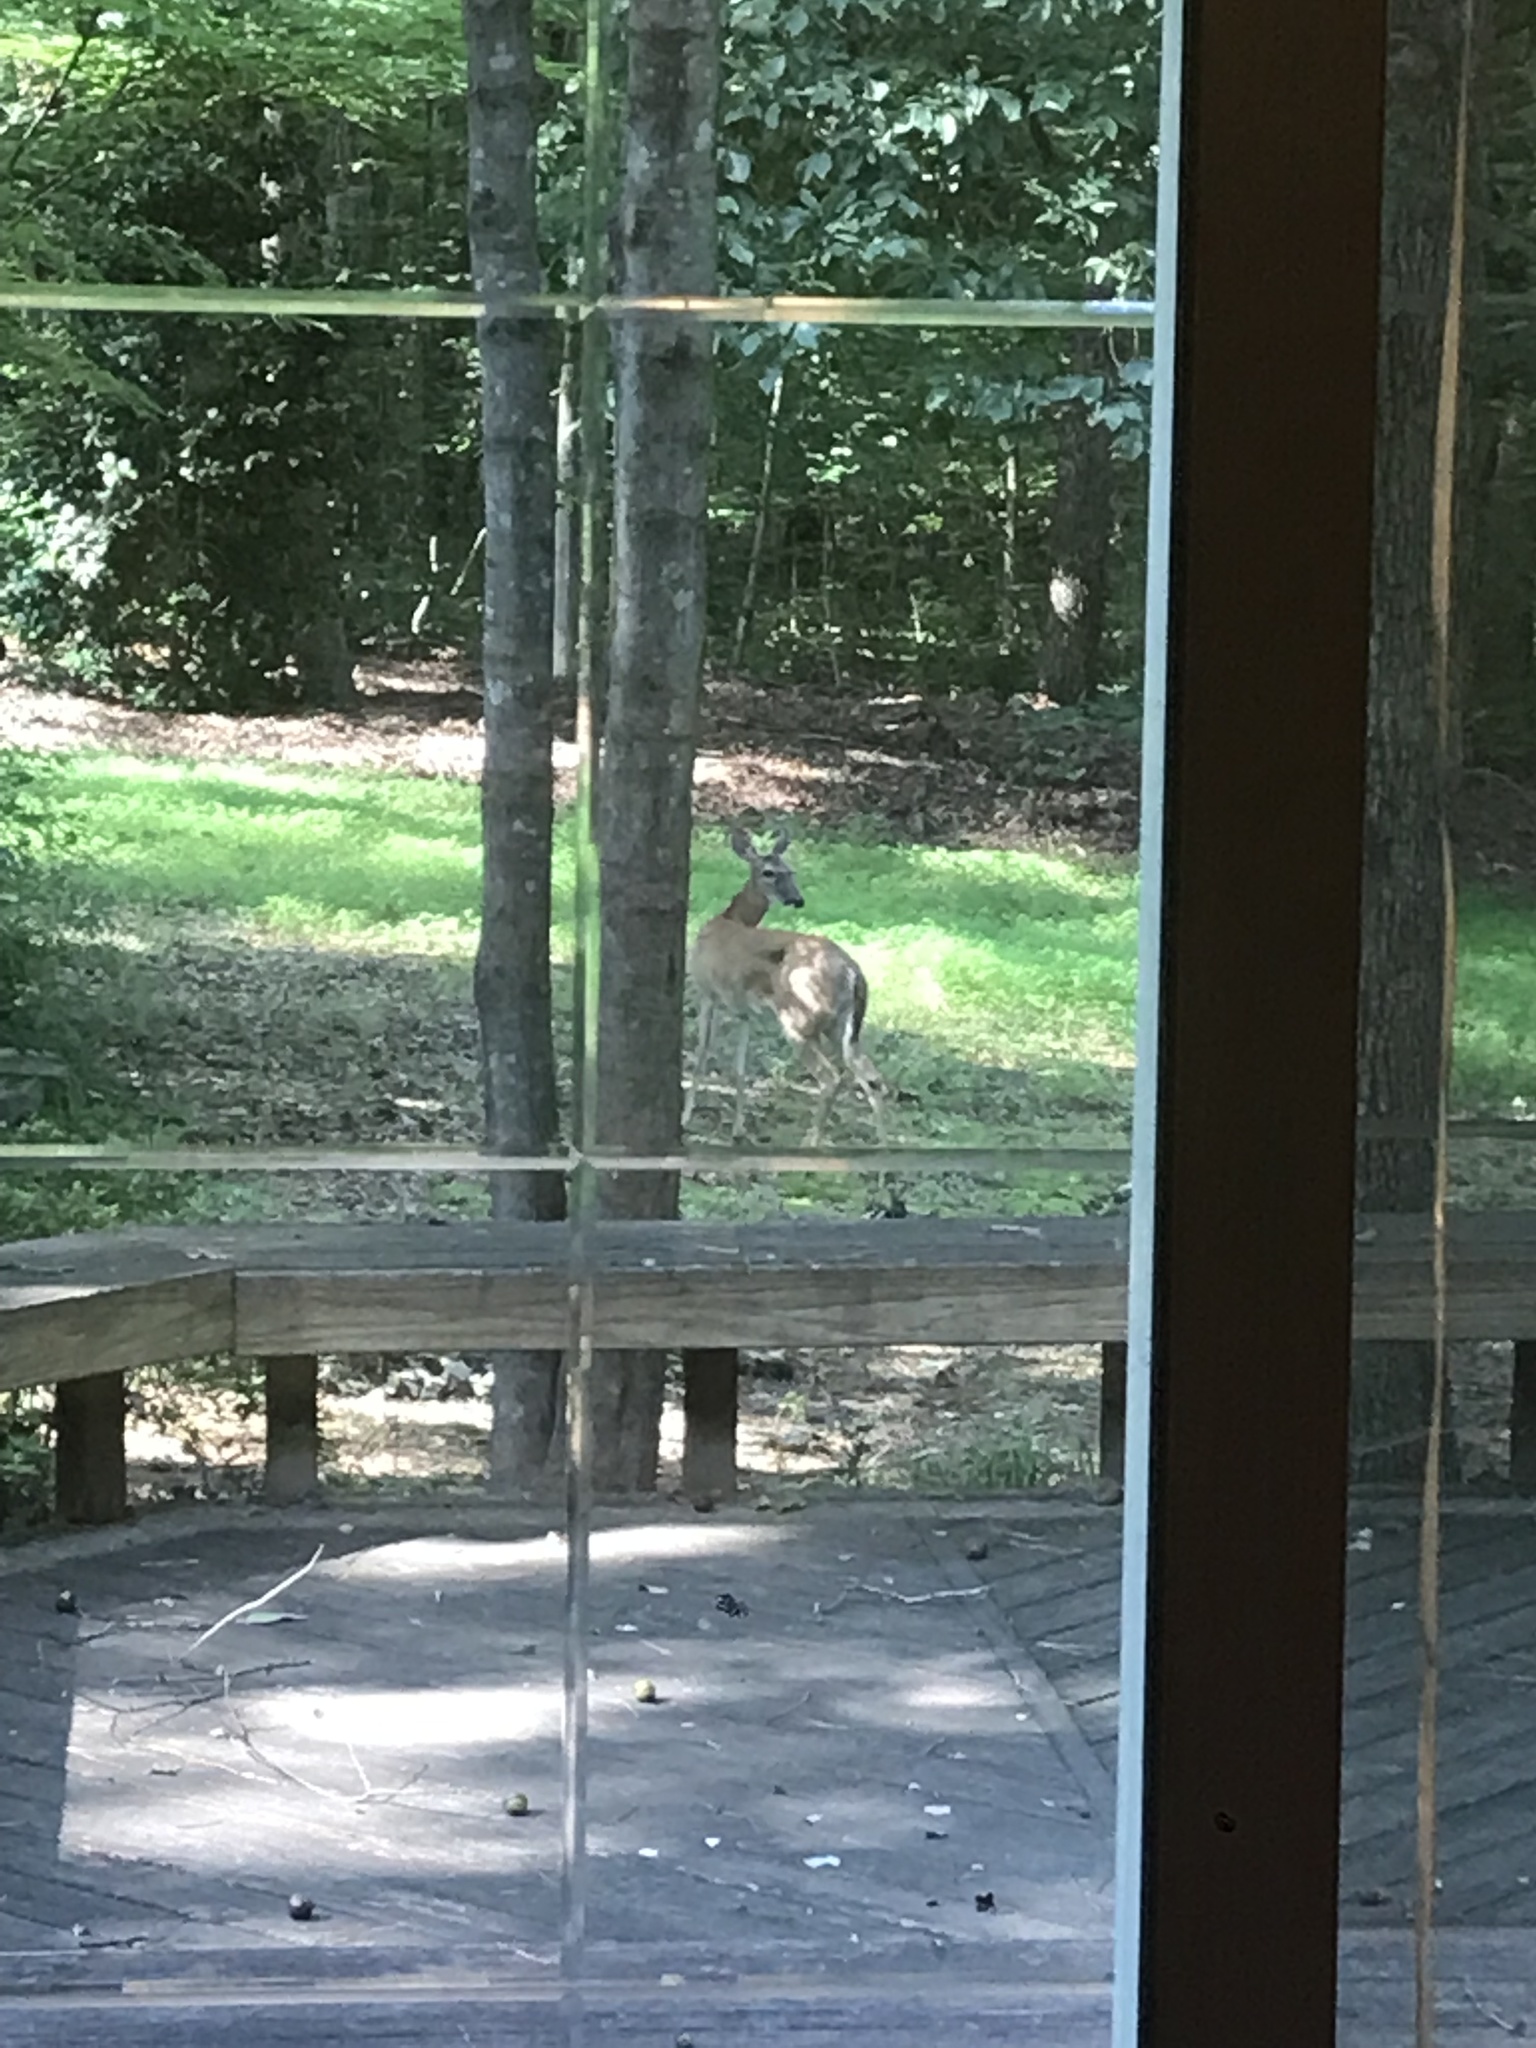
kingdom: Animalia
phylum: Chordata
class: Mammalia
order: Artiodactyla
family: Cervidae
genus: Odocoileus
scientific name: Odocoileus virginianus
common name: White-tailed deer
